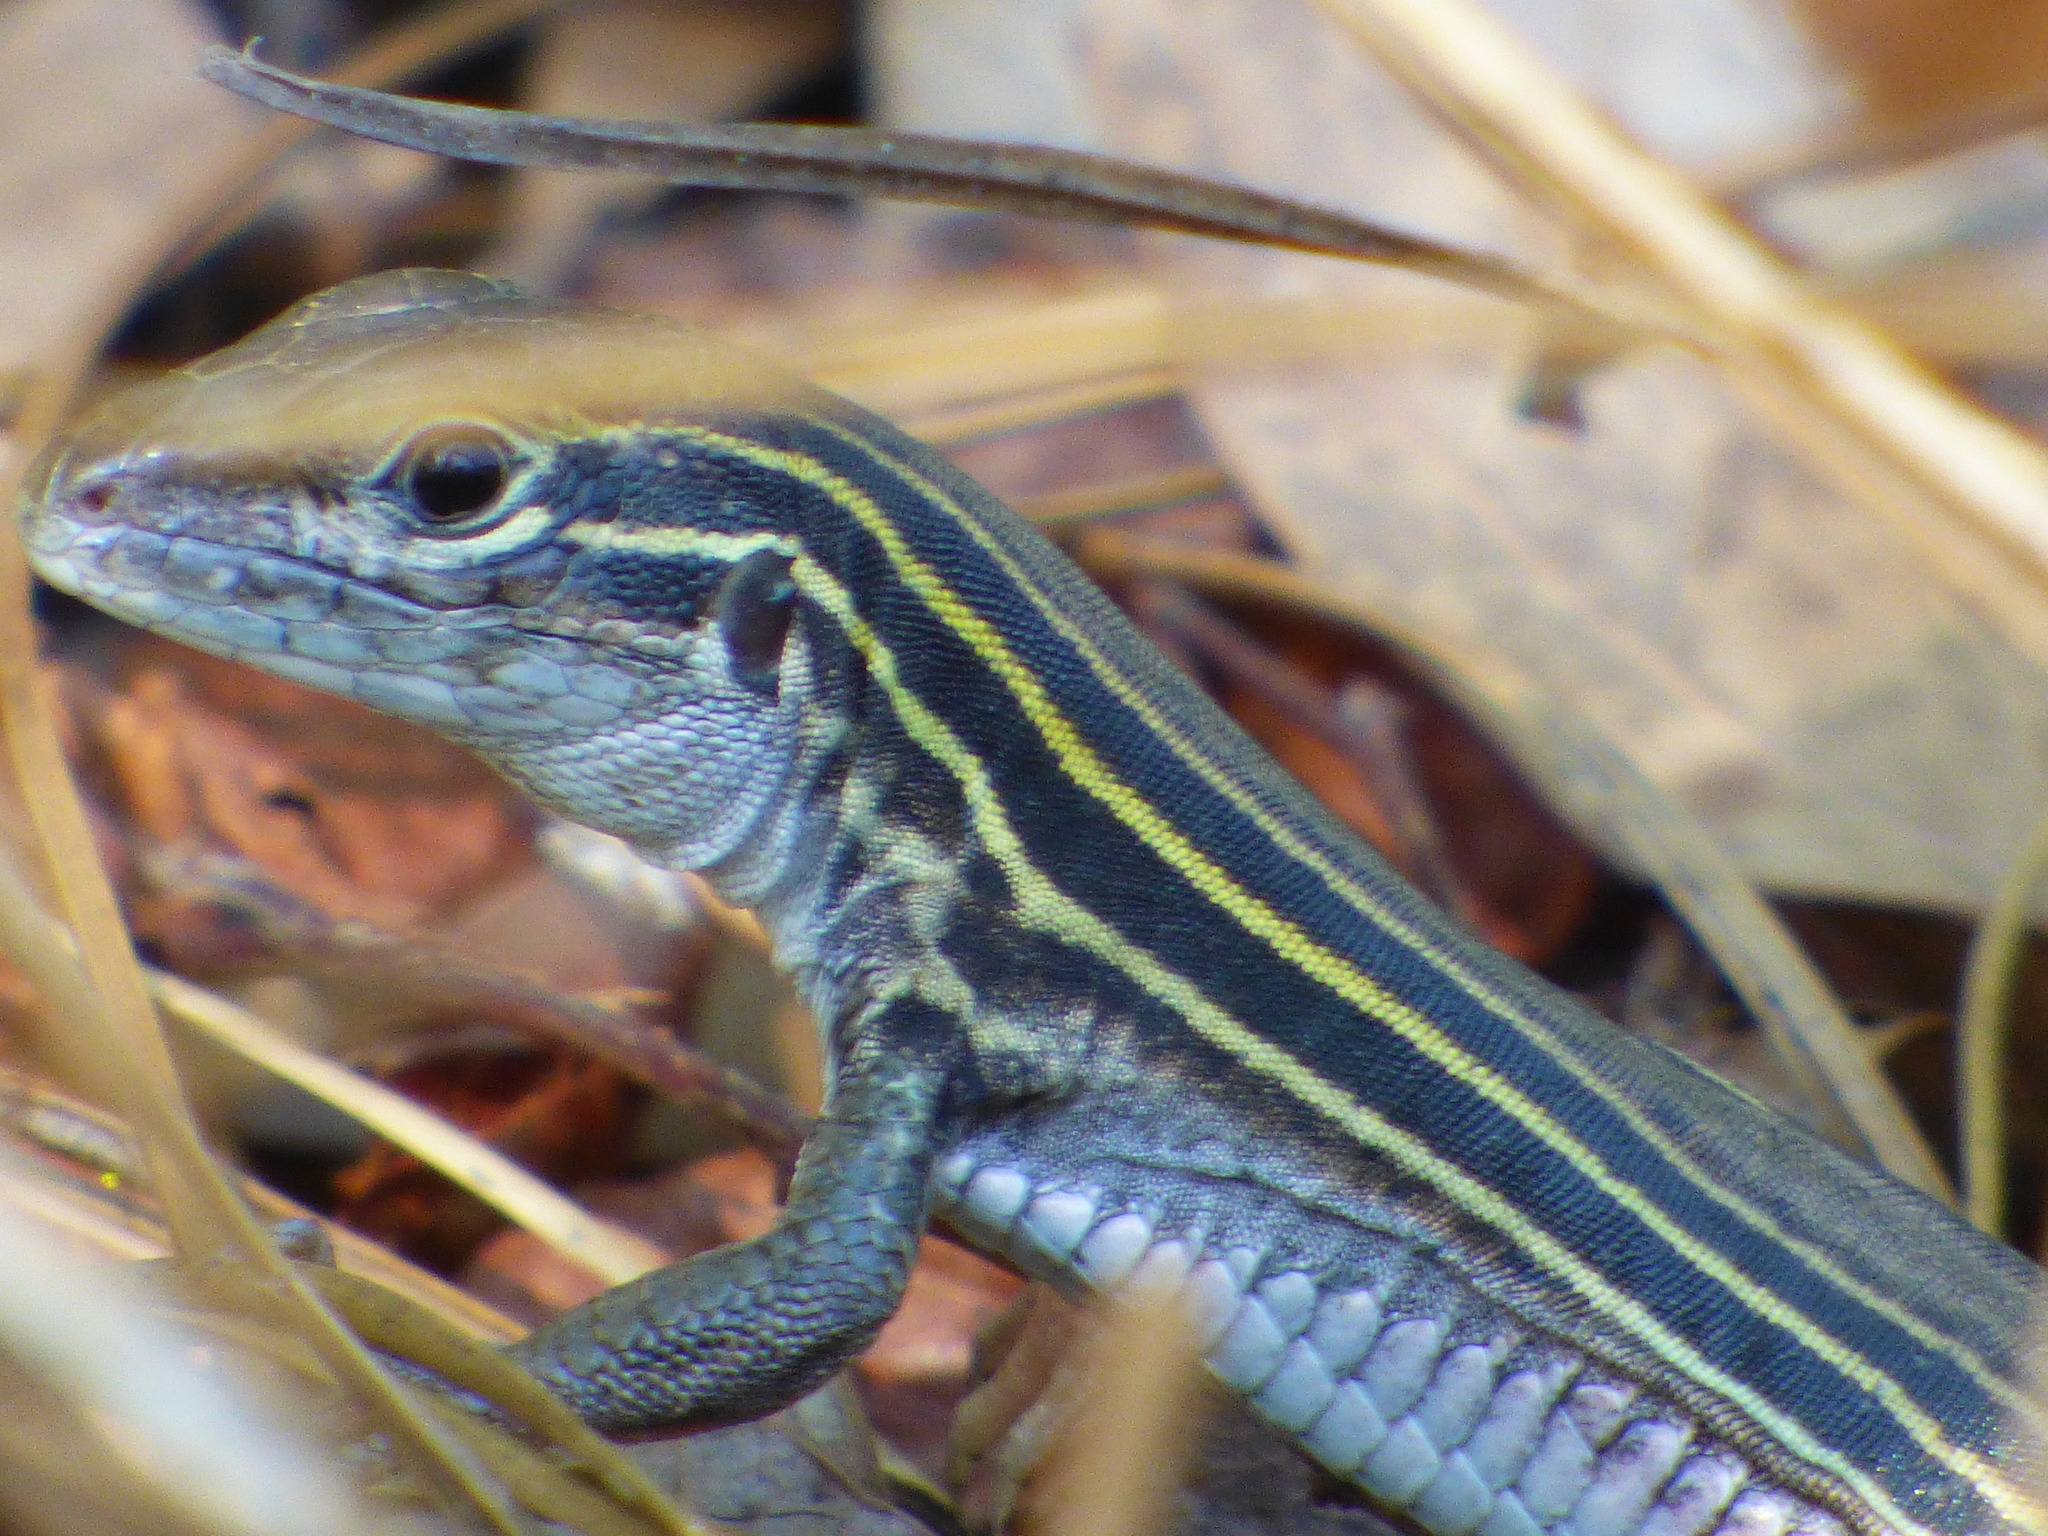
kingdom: Animalia
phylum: Chordata
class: Squamata
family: Teiidae
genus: Aspidoscelis
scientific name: Aspidoscelis sexlineatus
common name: Six-lined racerunner
